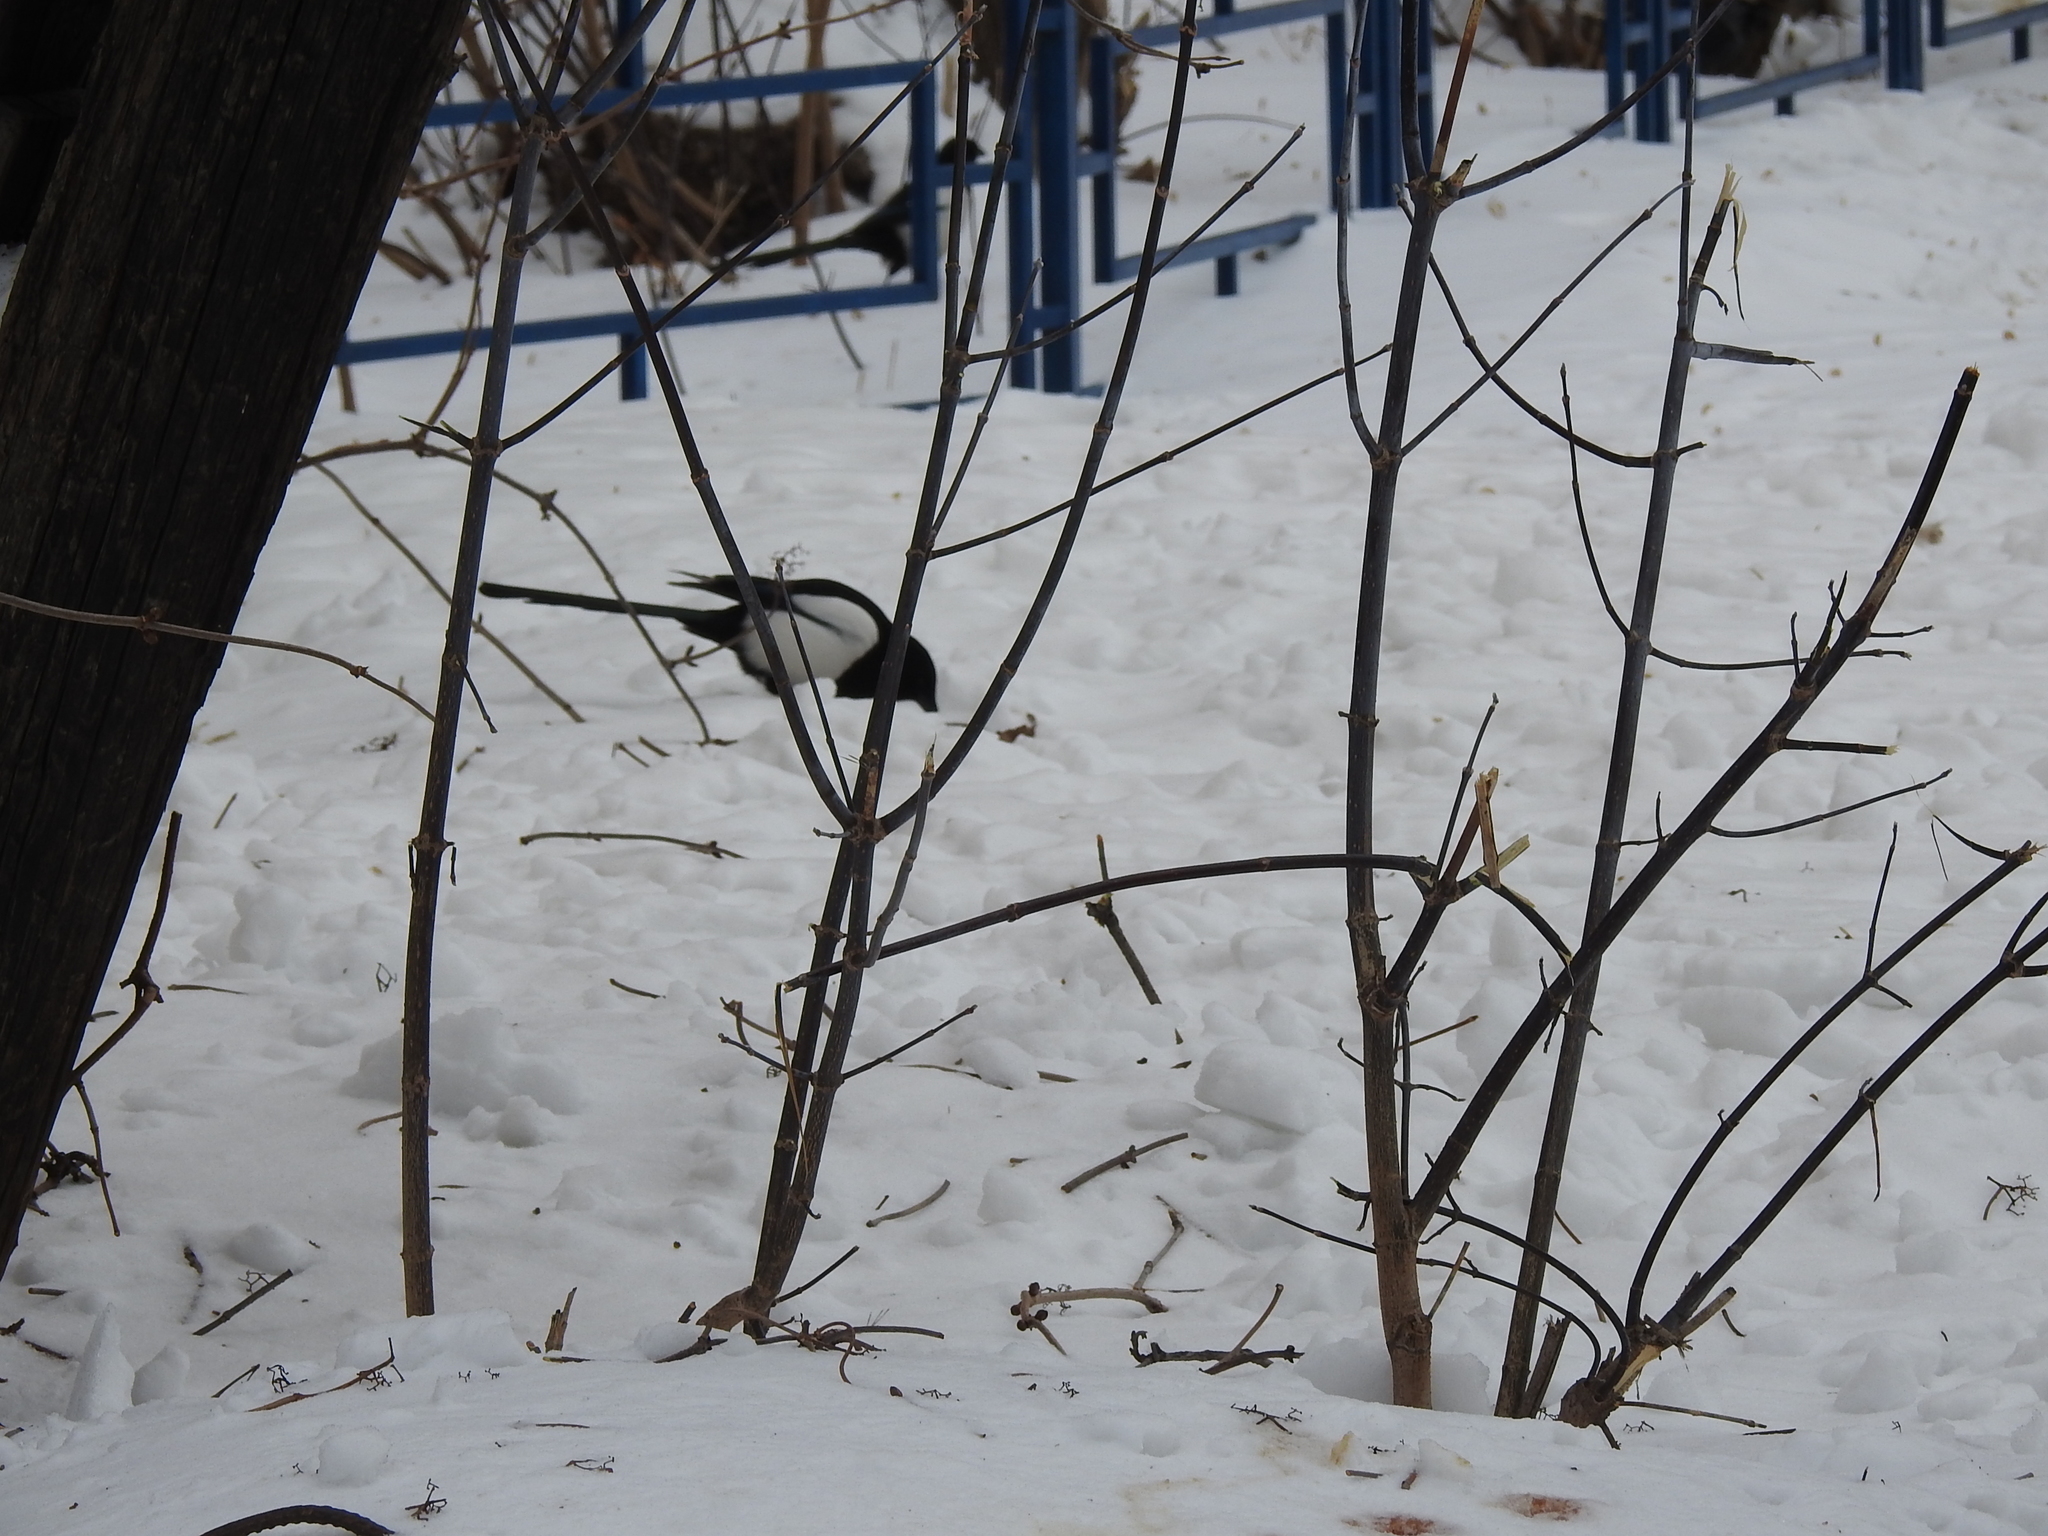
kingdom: Animalia
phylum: Chordata
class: Aves
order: Passeriformes
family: Corvidae
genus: Pica
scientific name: Pica pica
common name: Eurasian magpie
